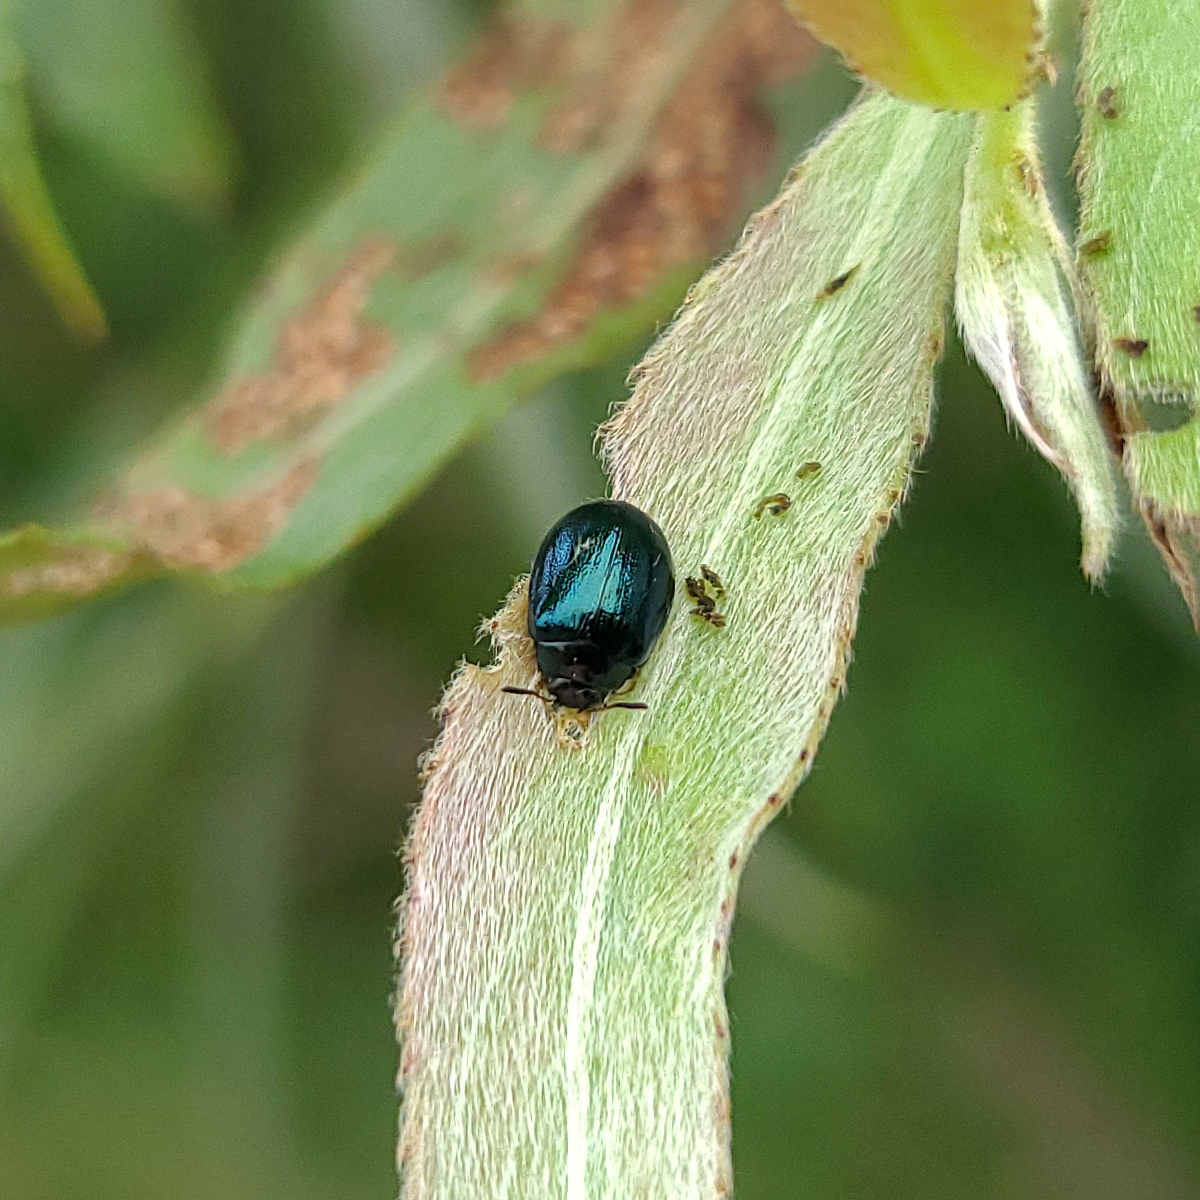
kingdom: Animalia
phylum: Arthropoda
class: Insecta
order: Coleoptera
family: Chrysomelidae
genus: Plagiodera
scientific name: Plagiodera versicolora
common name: Imported willow leaf beetle
